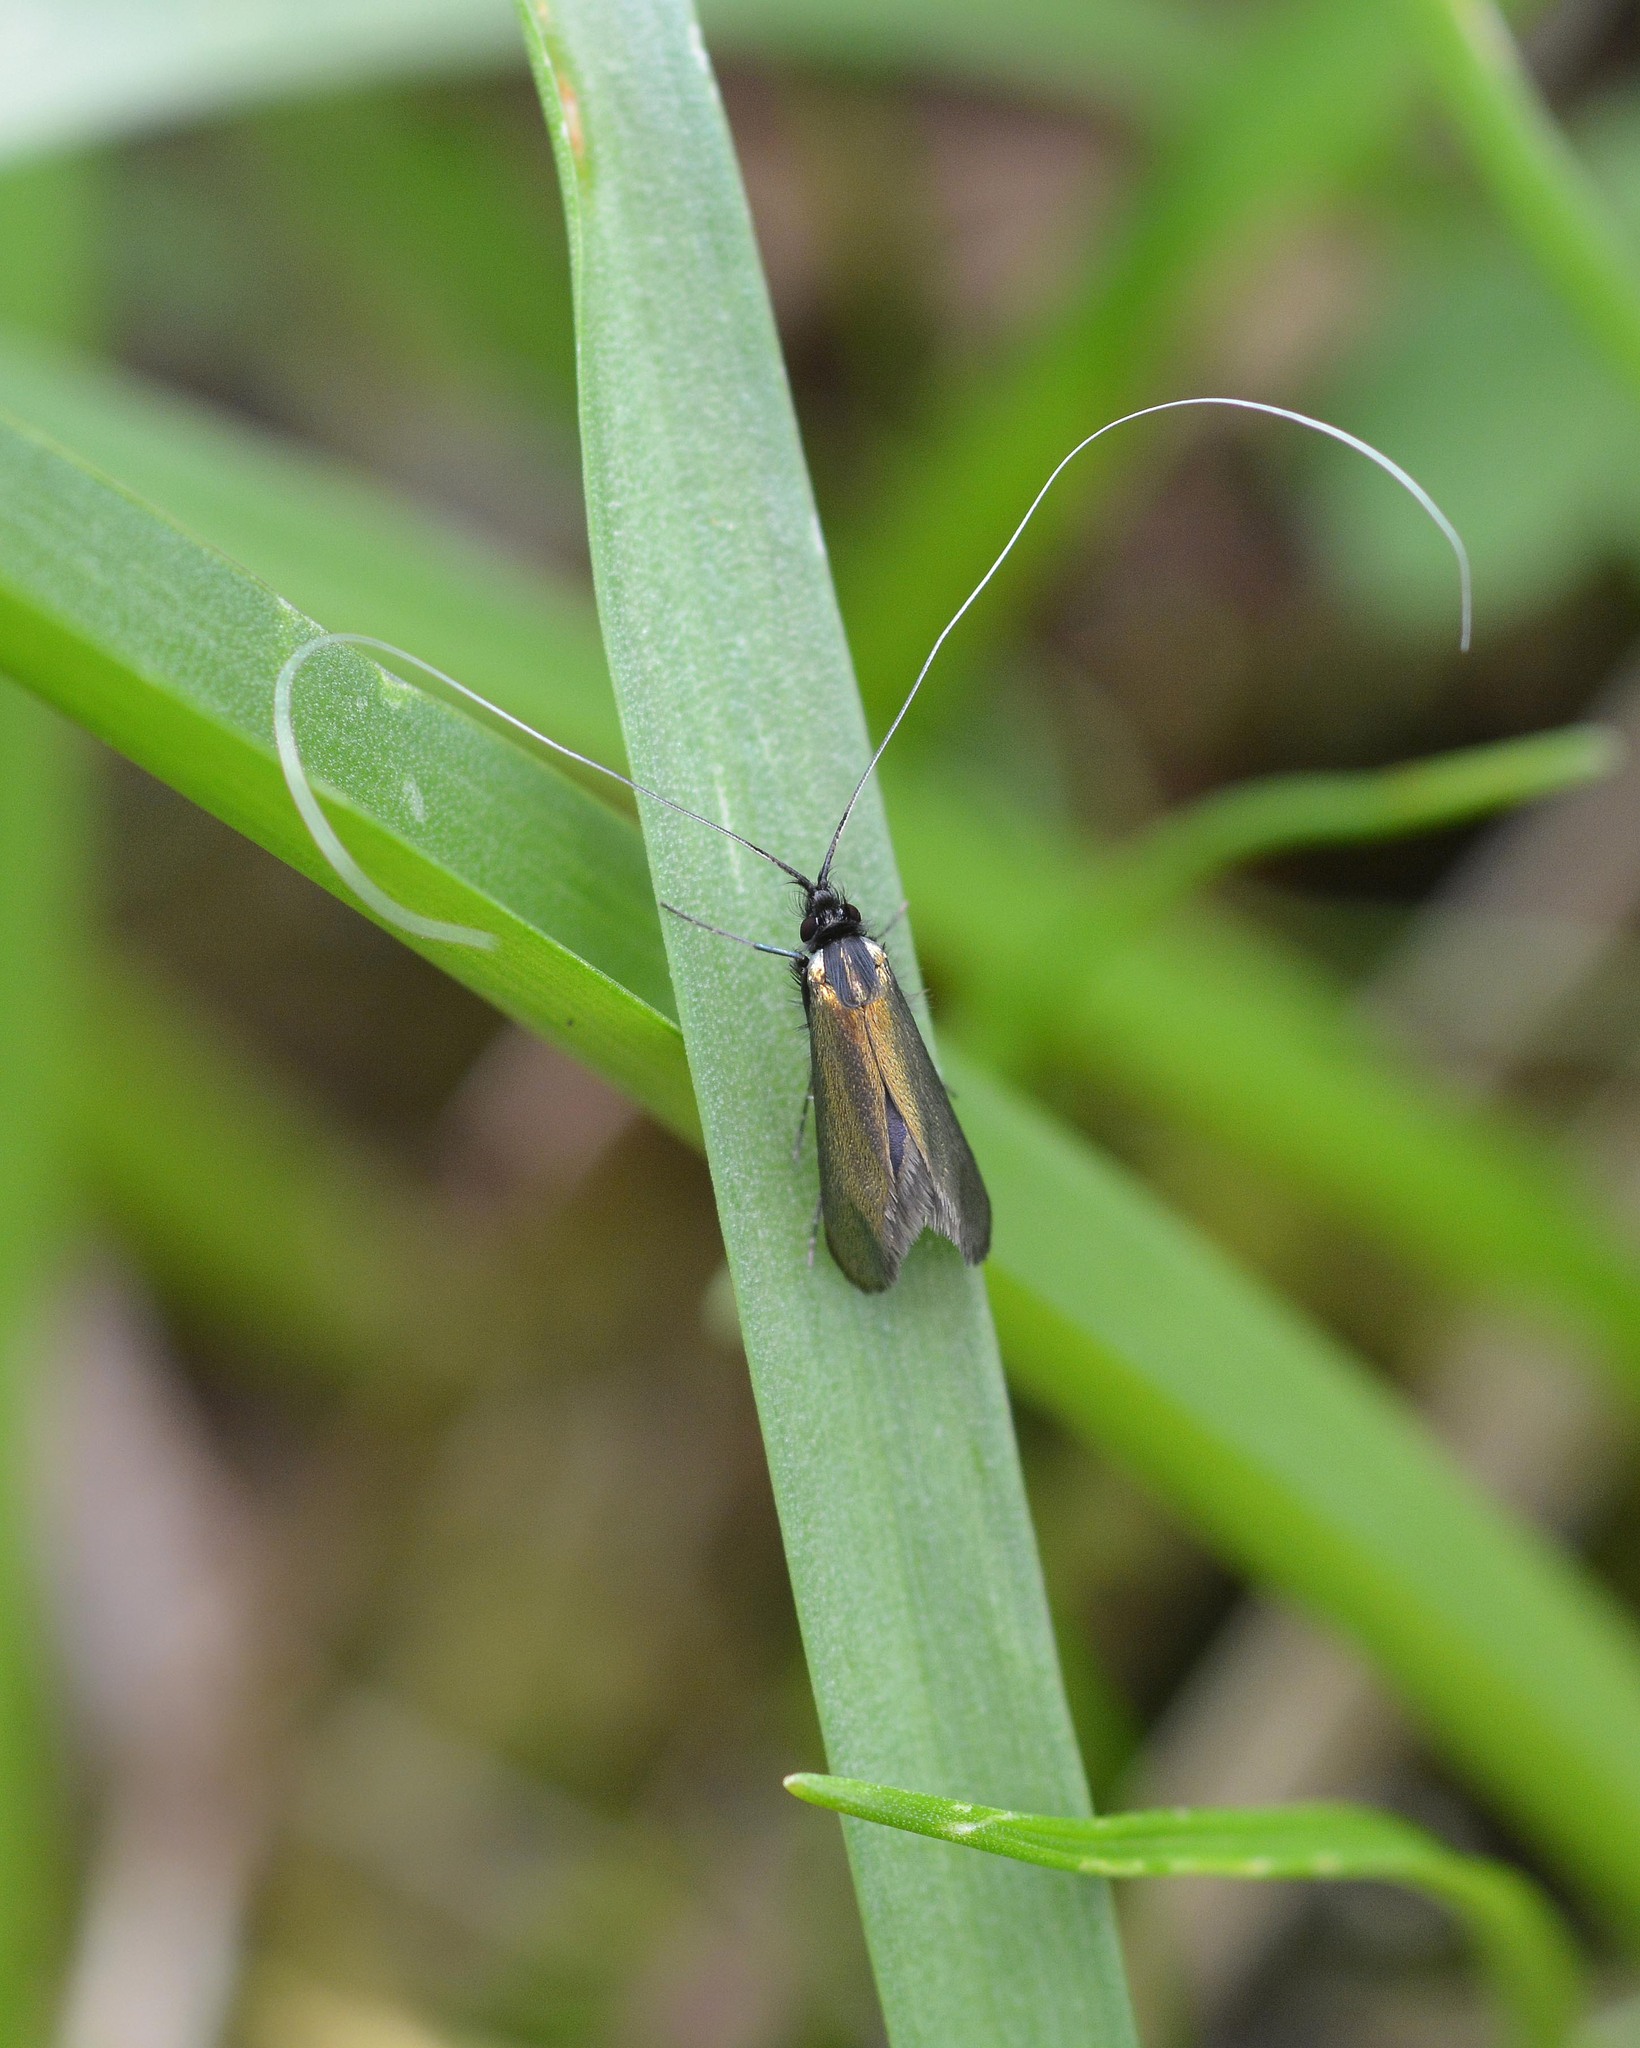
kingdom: Animalia
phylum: Arthropoda
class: Insecta
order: Lepidoptera
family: Adelidae
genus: Adela
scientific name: Adela viridella
